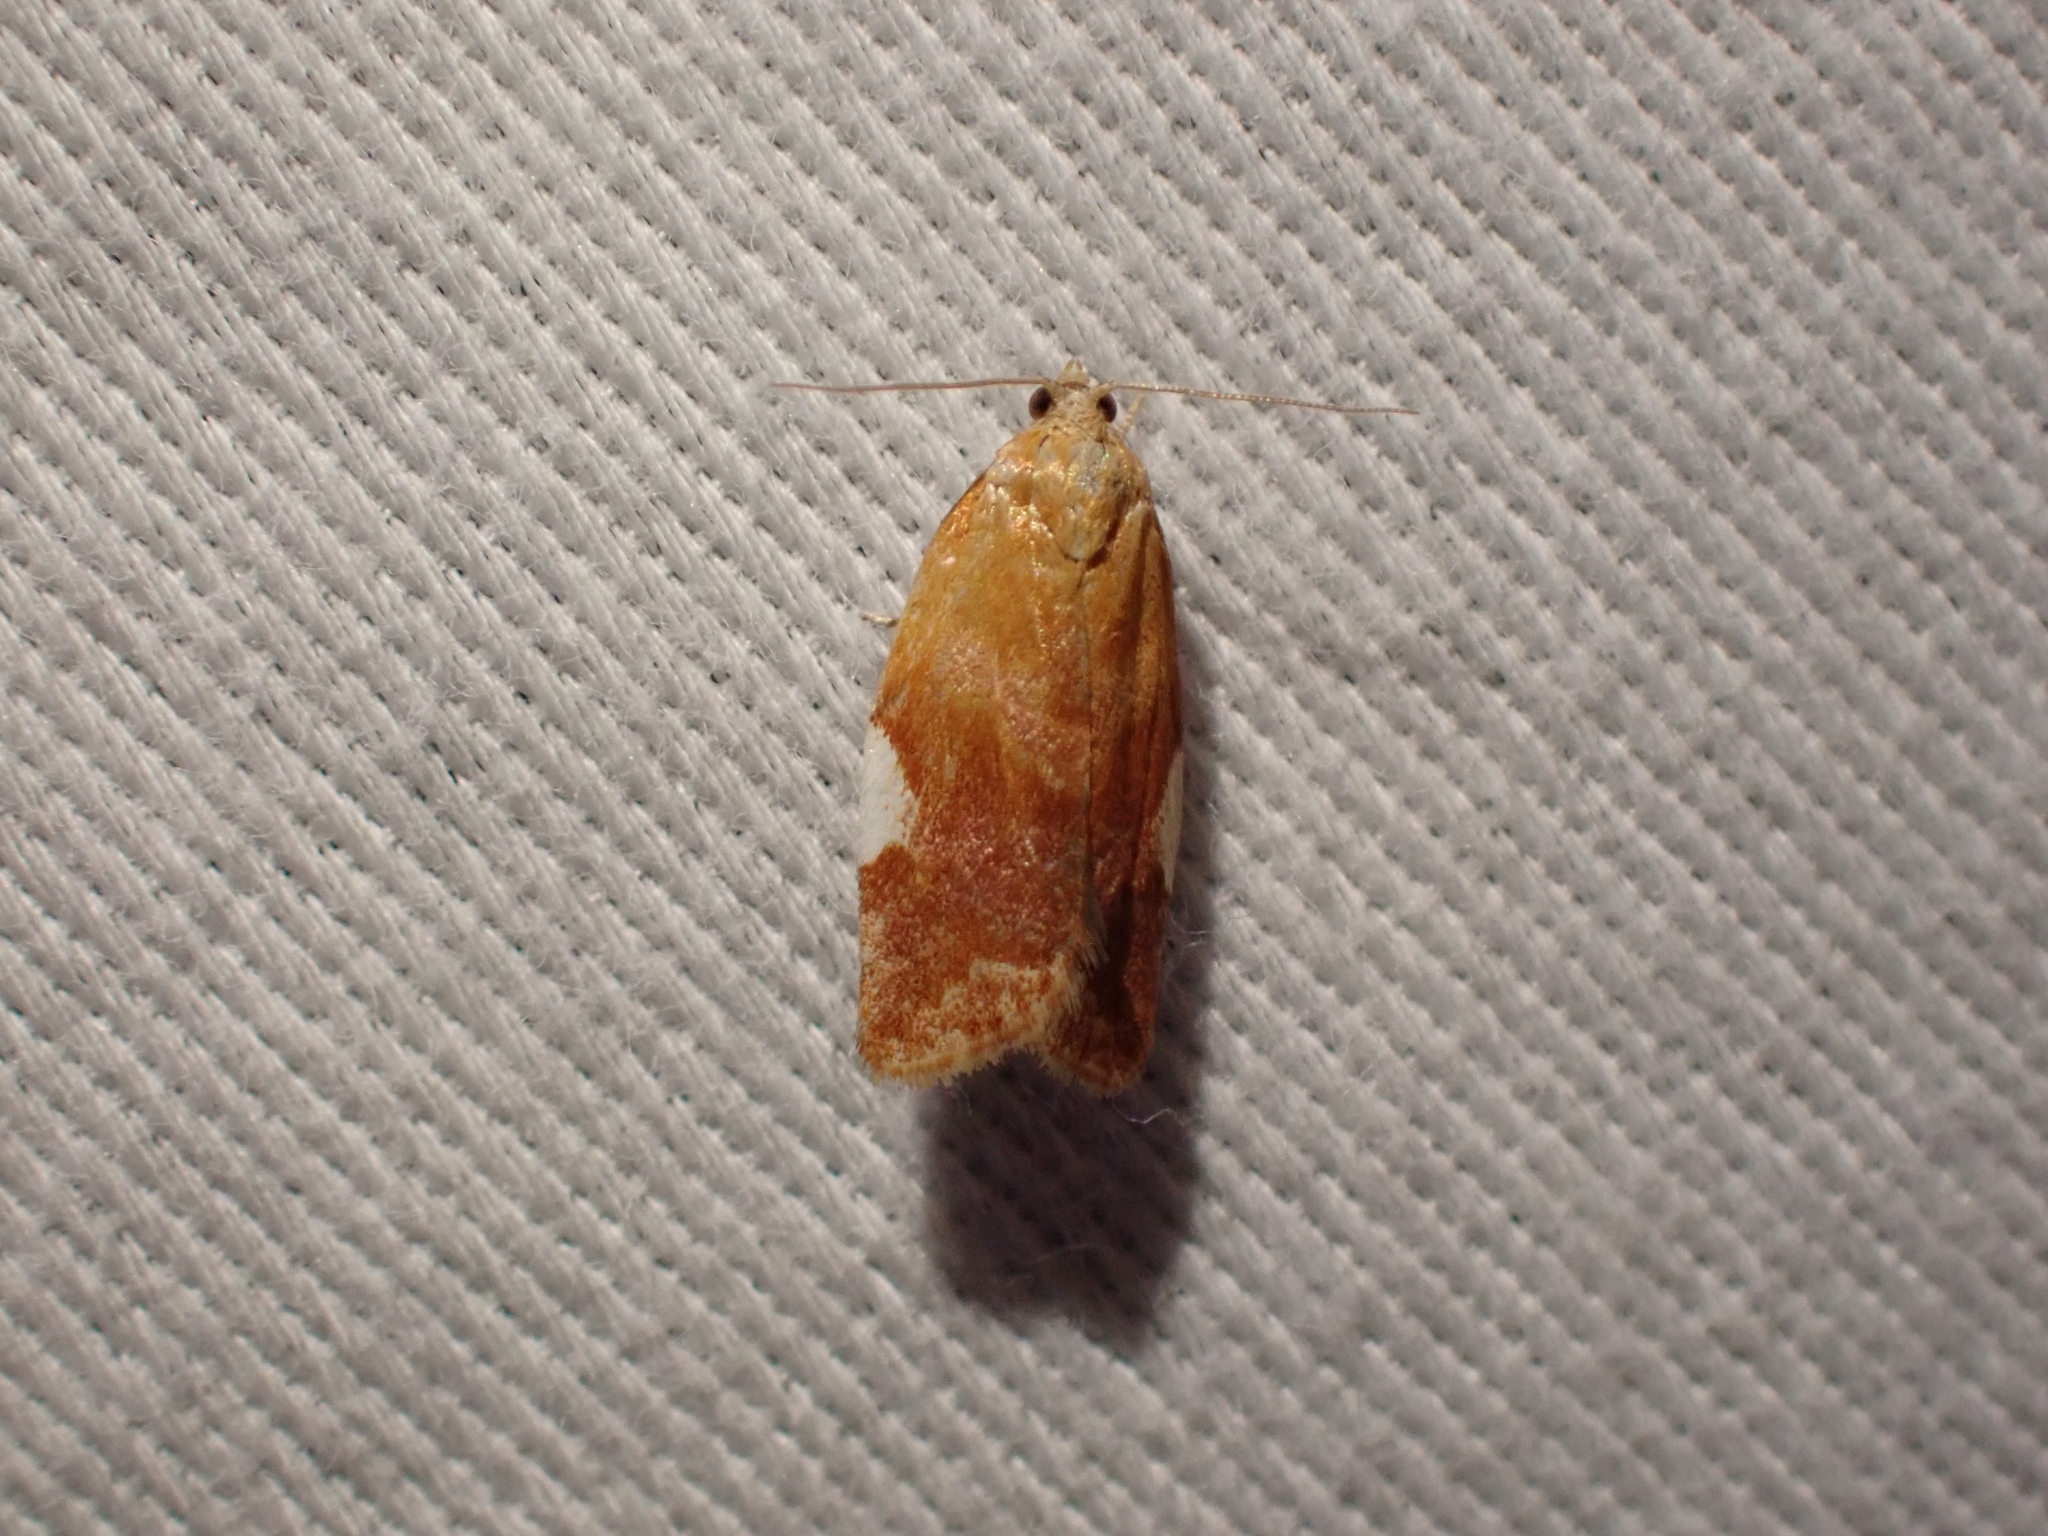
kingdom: Animalia
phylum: Arthropoda
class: Insecta
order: Lepidoptera
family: Tortricidae
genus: Acleris
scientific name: Acleris holmiana
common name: Golden leafroller moth
